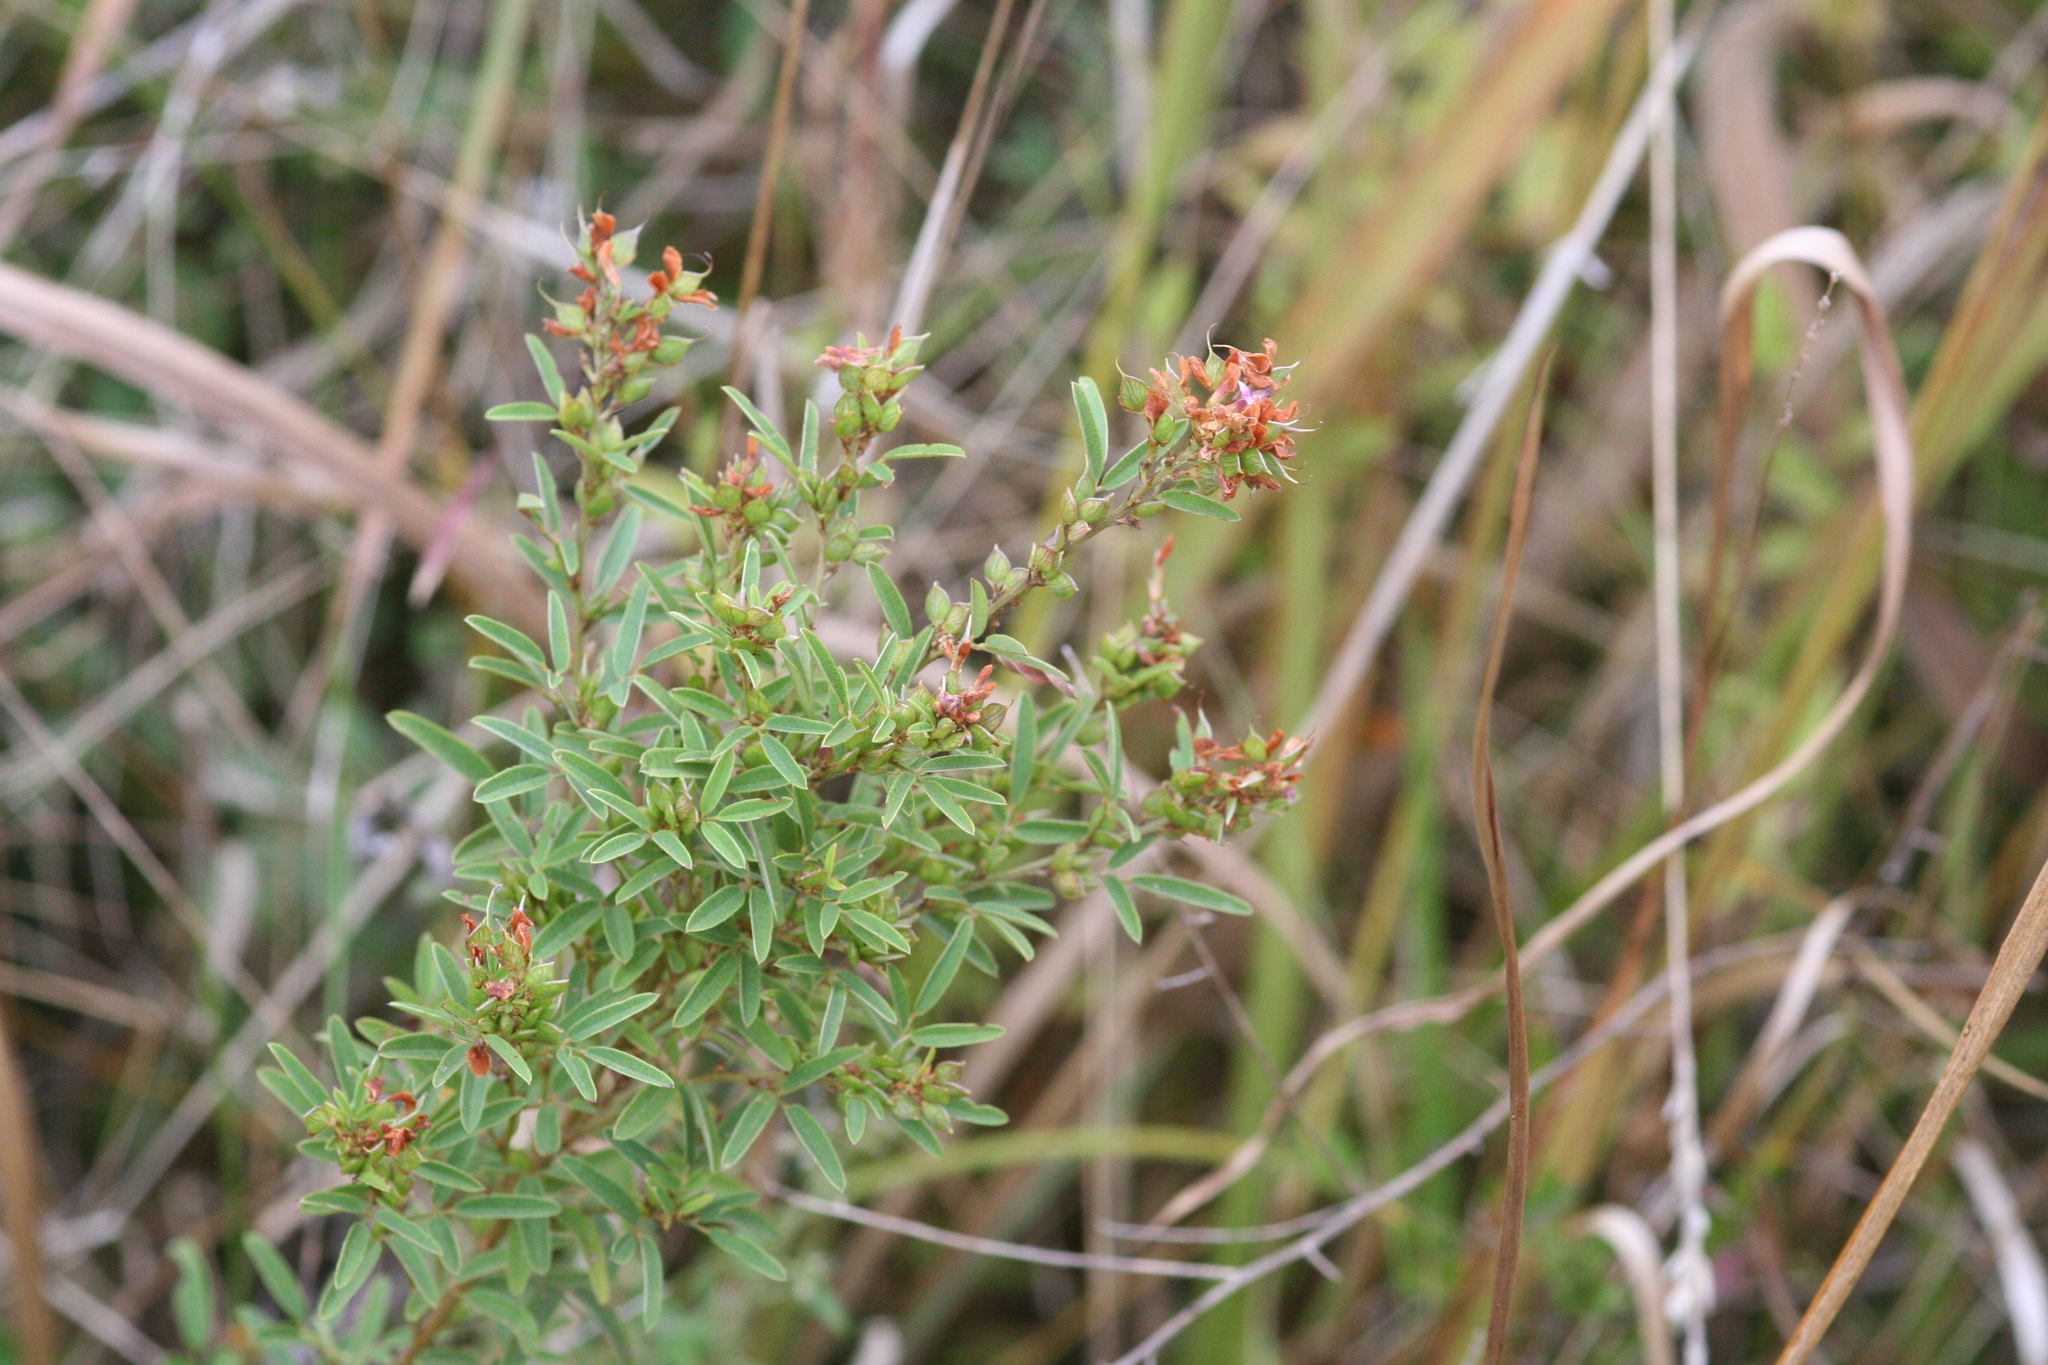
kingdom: Plantae
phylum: Tracheophyta
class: Magnoliopsida
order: Fabales
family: Fabaceae
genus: Lespedeza
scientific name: Lespedeza virginica
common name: Slender bush-clover
